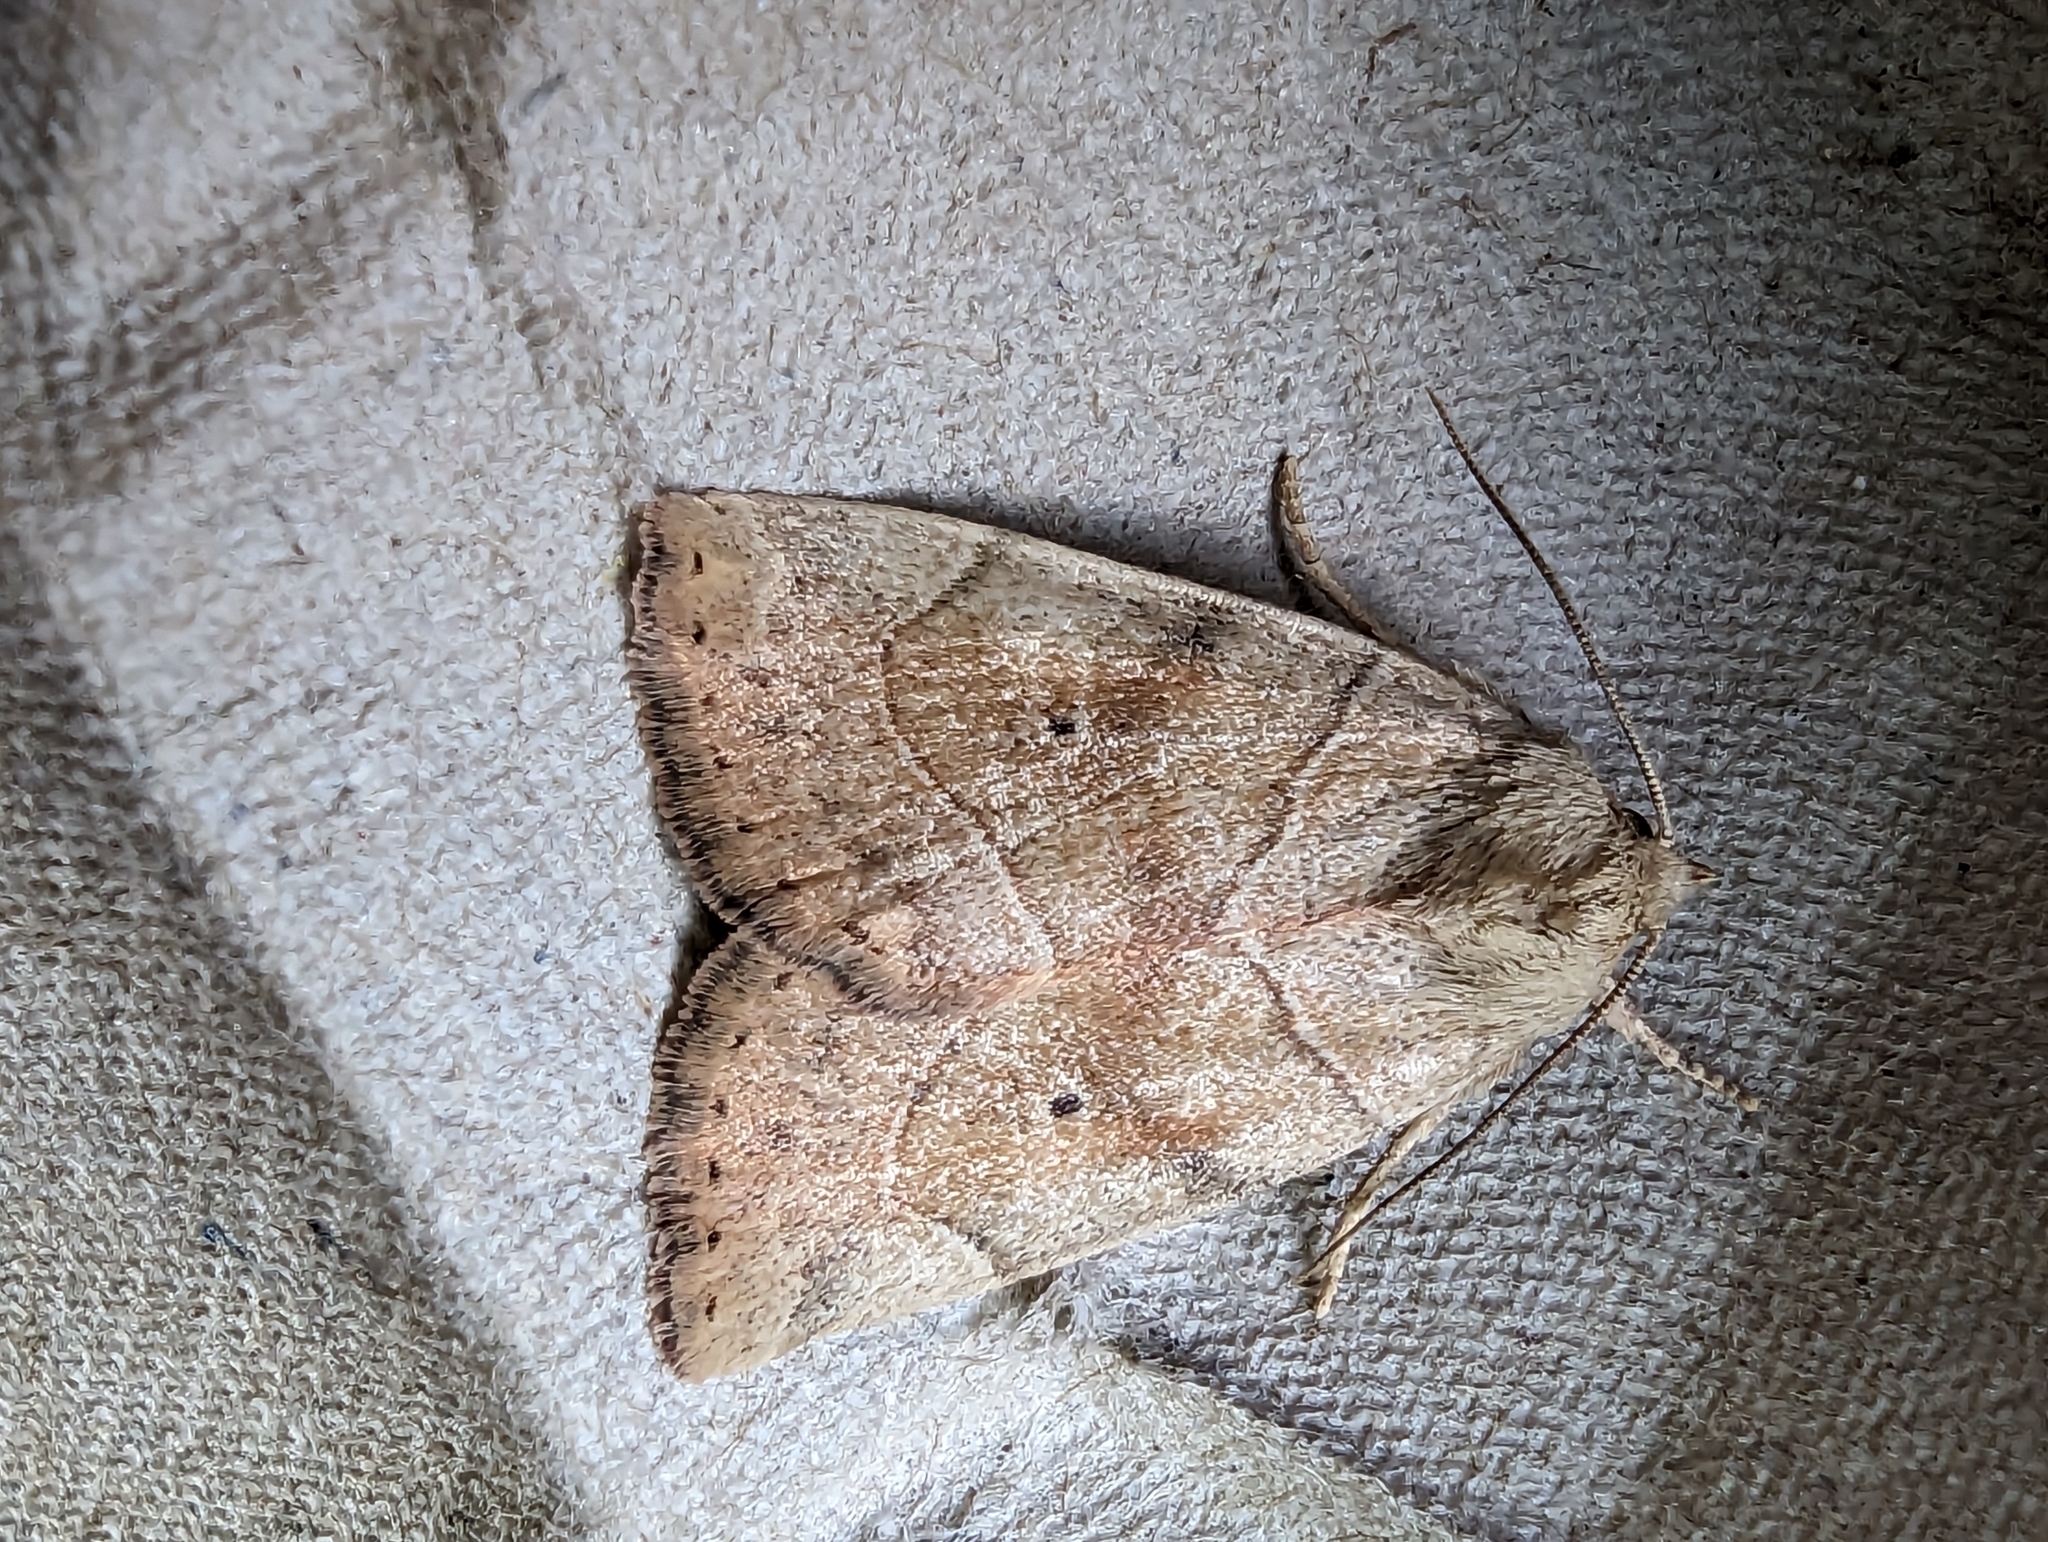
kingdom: Animalia
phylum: Arthropoda
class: Insecta
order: Lepidoptera
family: Noctuidae
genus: Cosmia
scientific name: Cosmia trapezina
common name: Dun-bar
